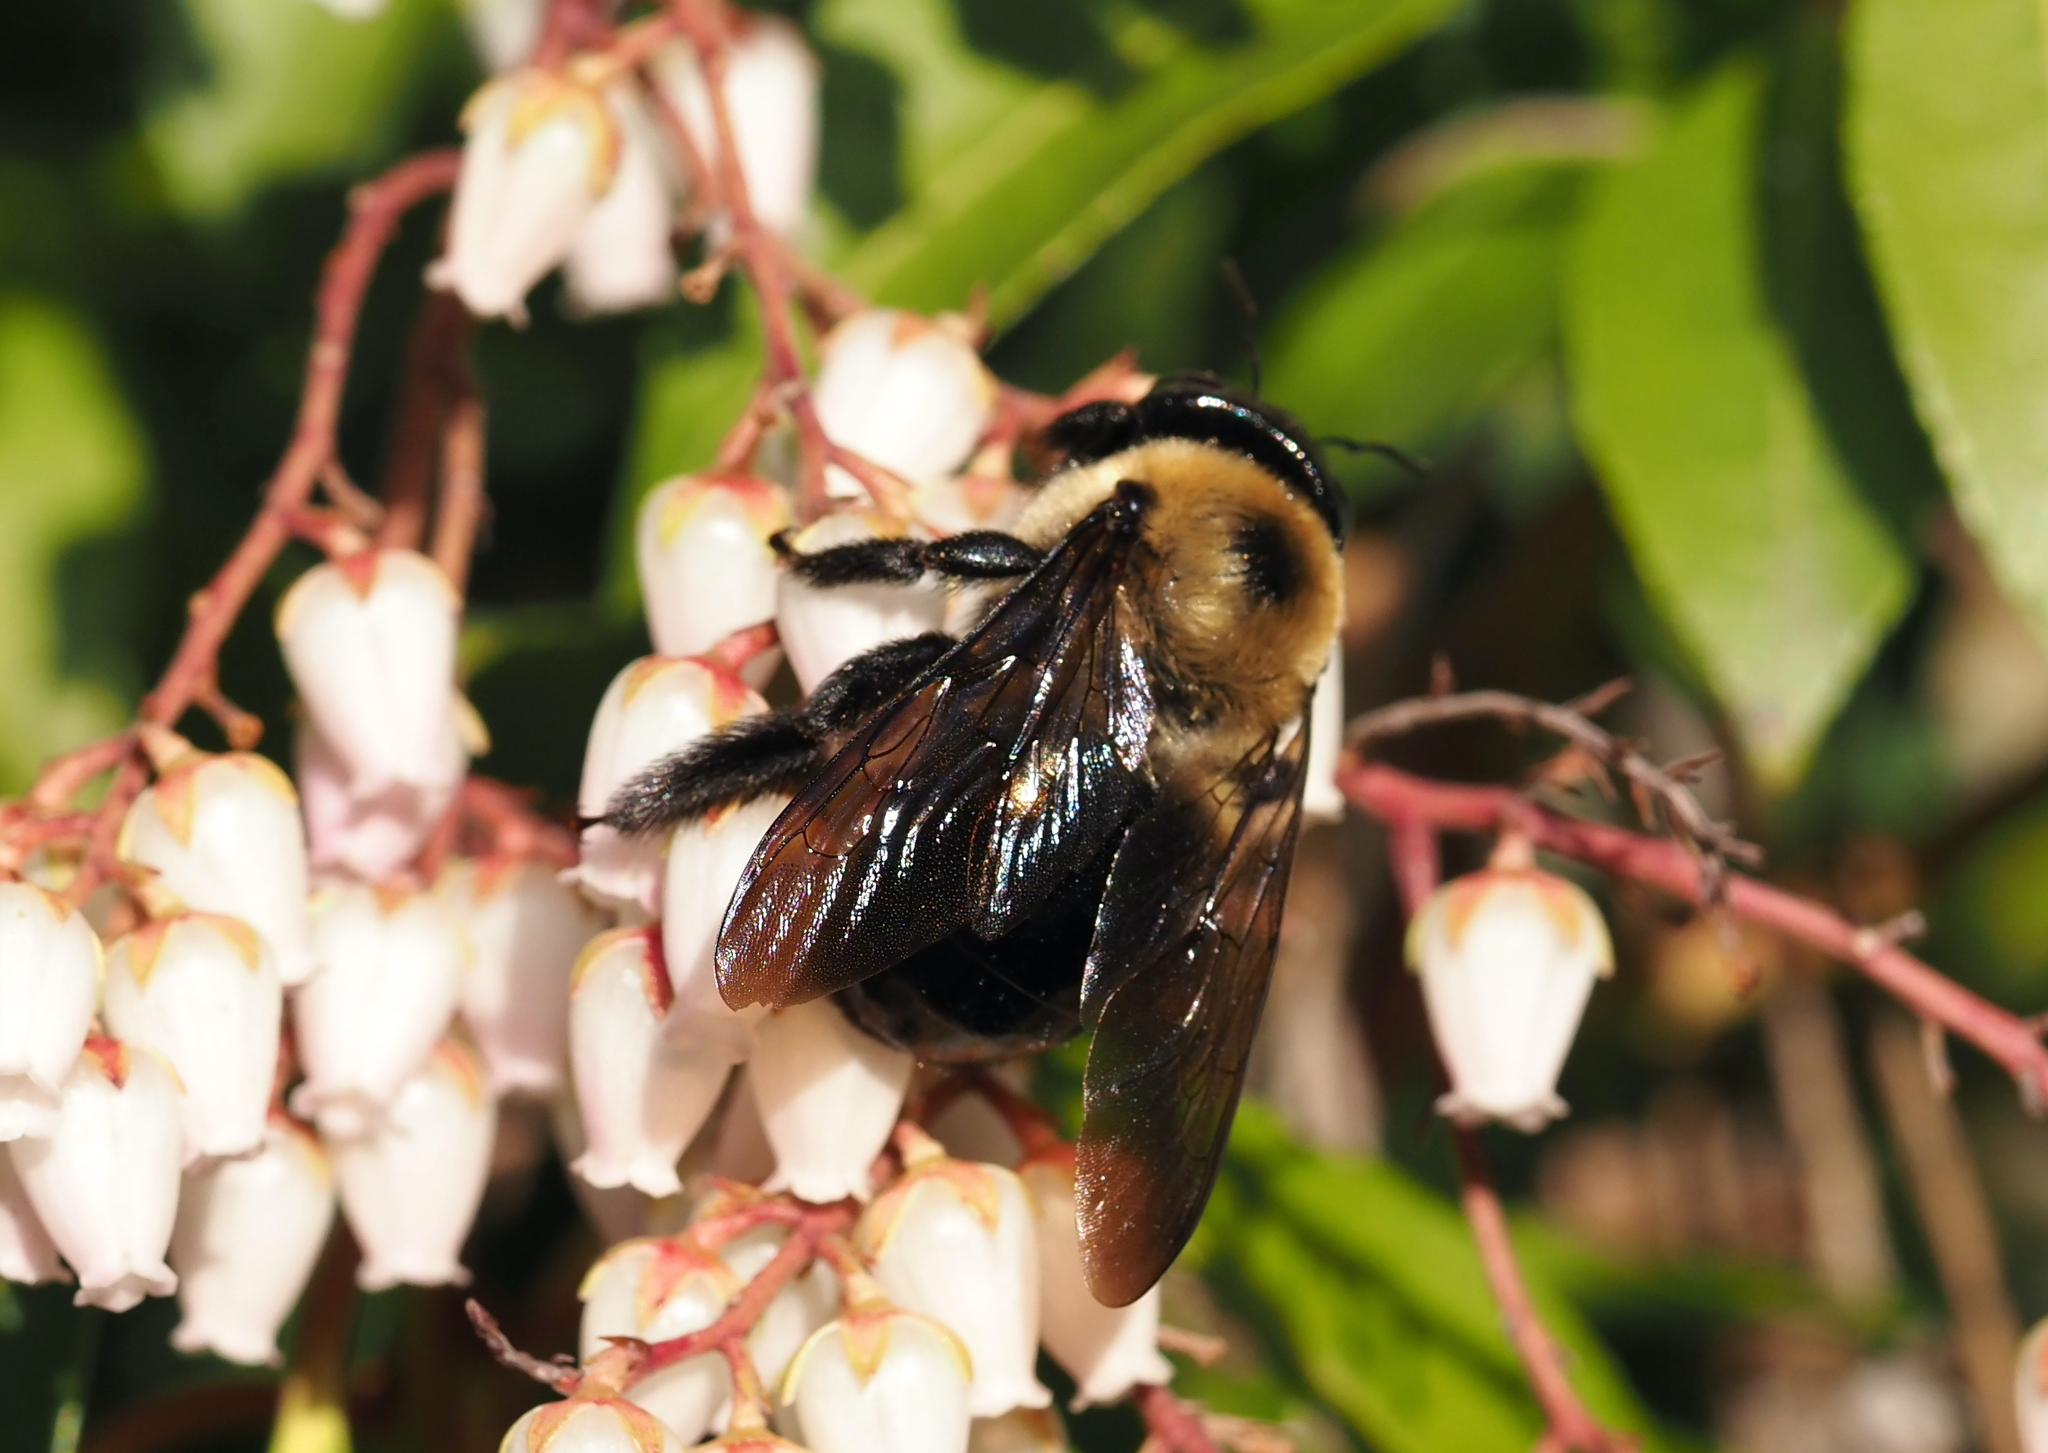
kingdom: Animalia
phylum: Arthropoda
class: Insecta
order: Hymenoptera
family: Apidae
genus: Xylocopa
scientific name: Xylocopa virginica
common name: Carpenter bee
